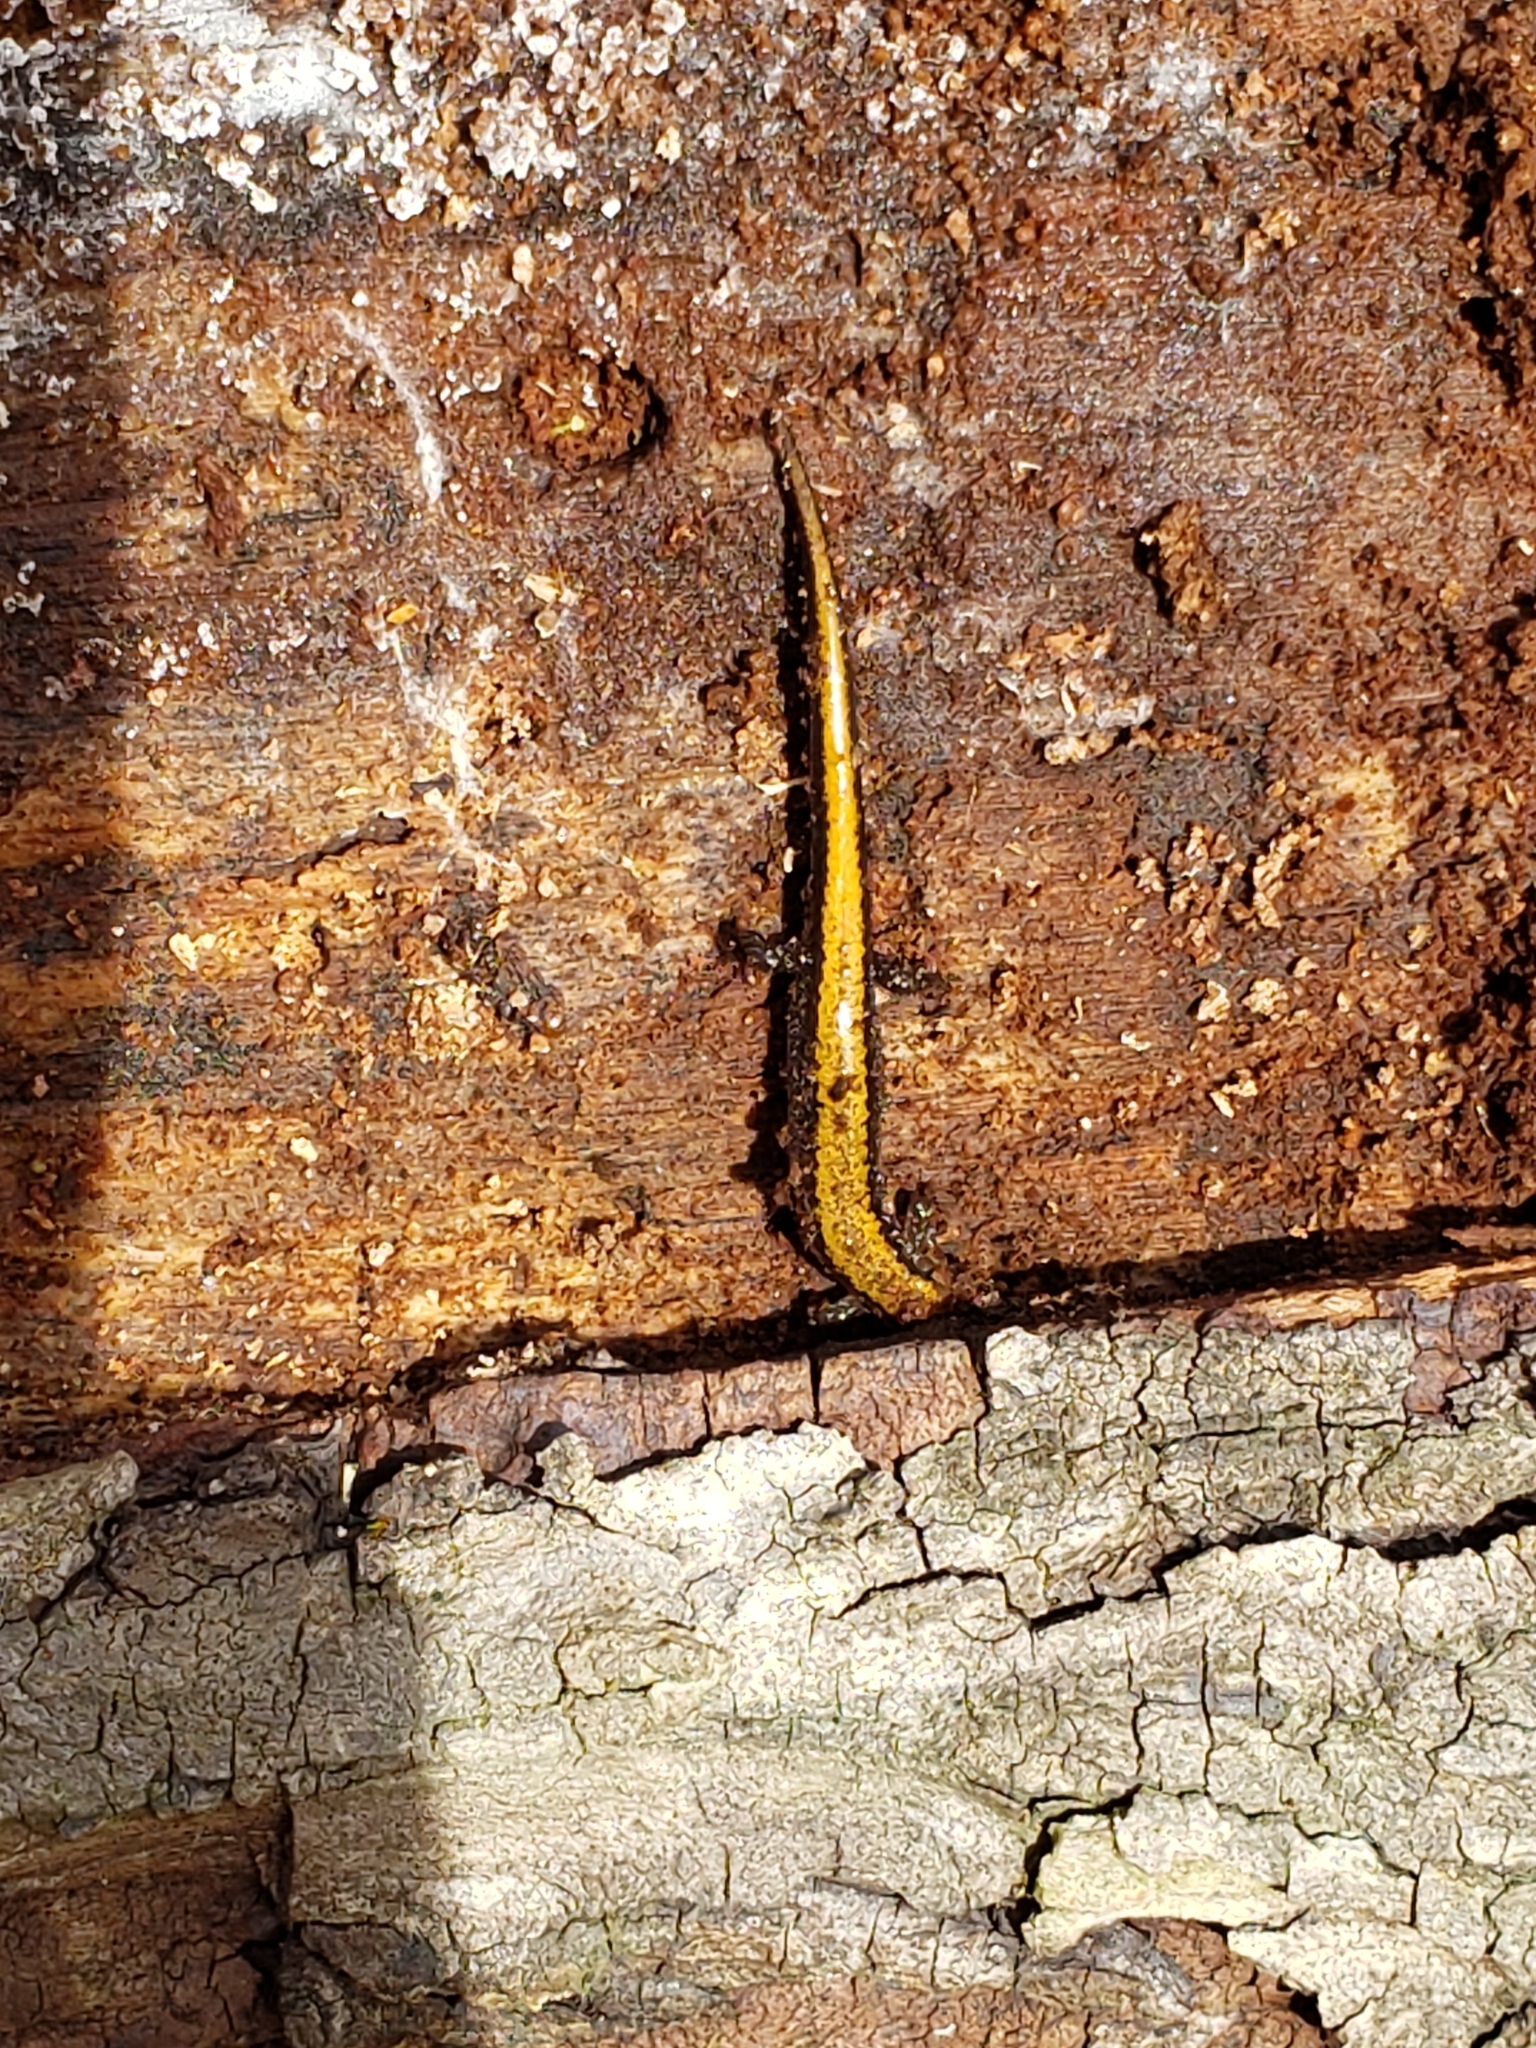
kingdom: Animalia
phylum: Chordata
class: Amphibia
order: Caudata
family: Plethodontidae
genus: Plethodon
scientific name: Plethodon cinereus
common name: Redback salamander
